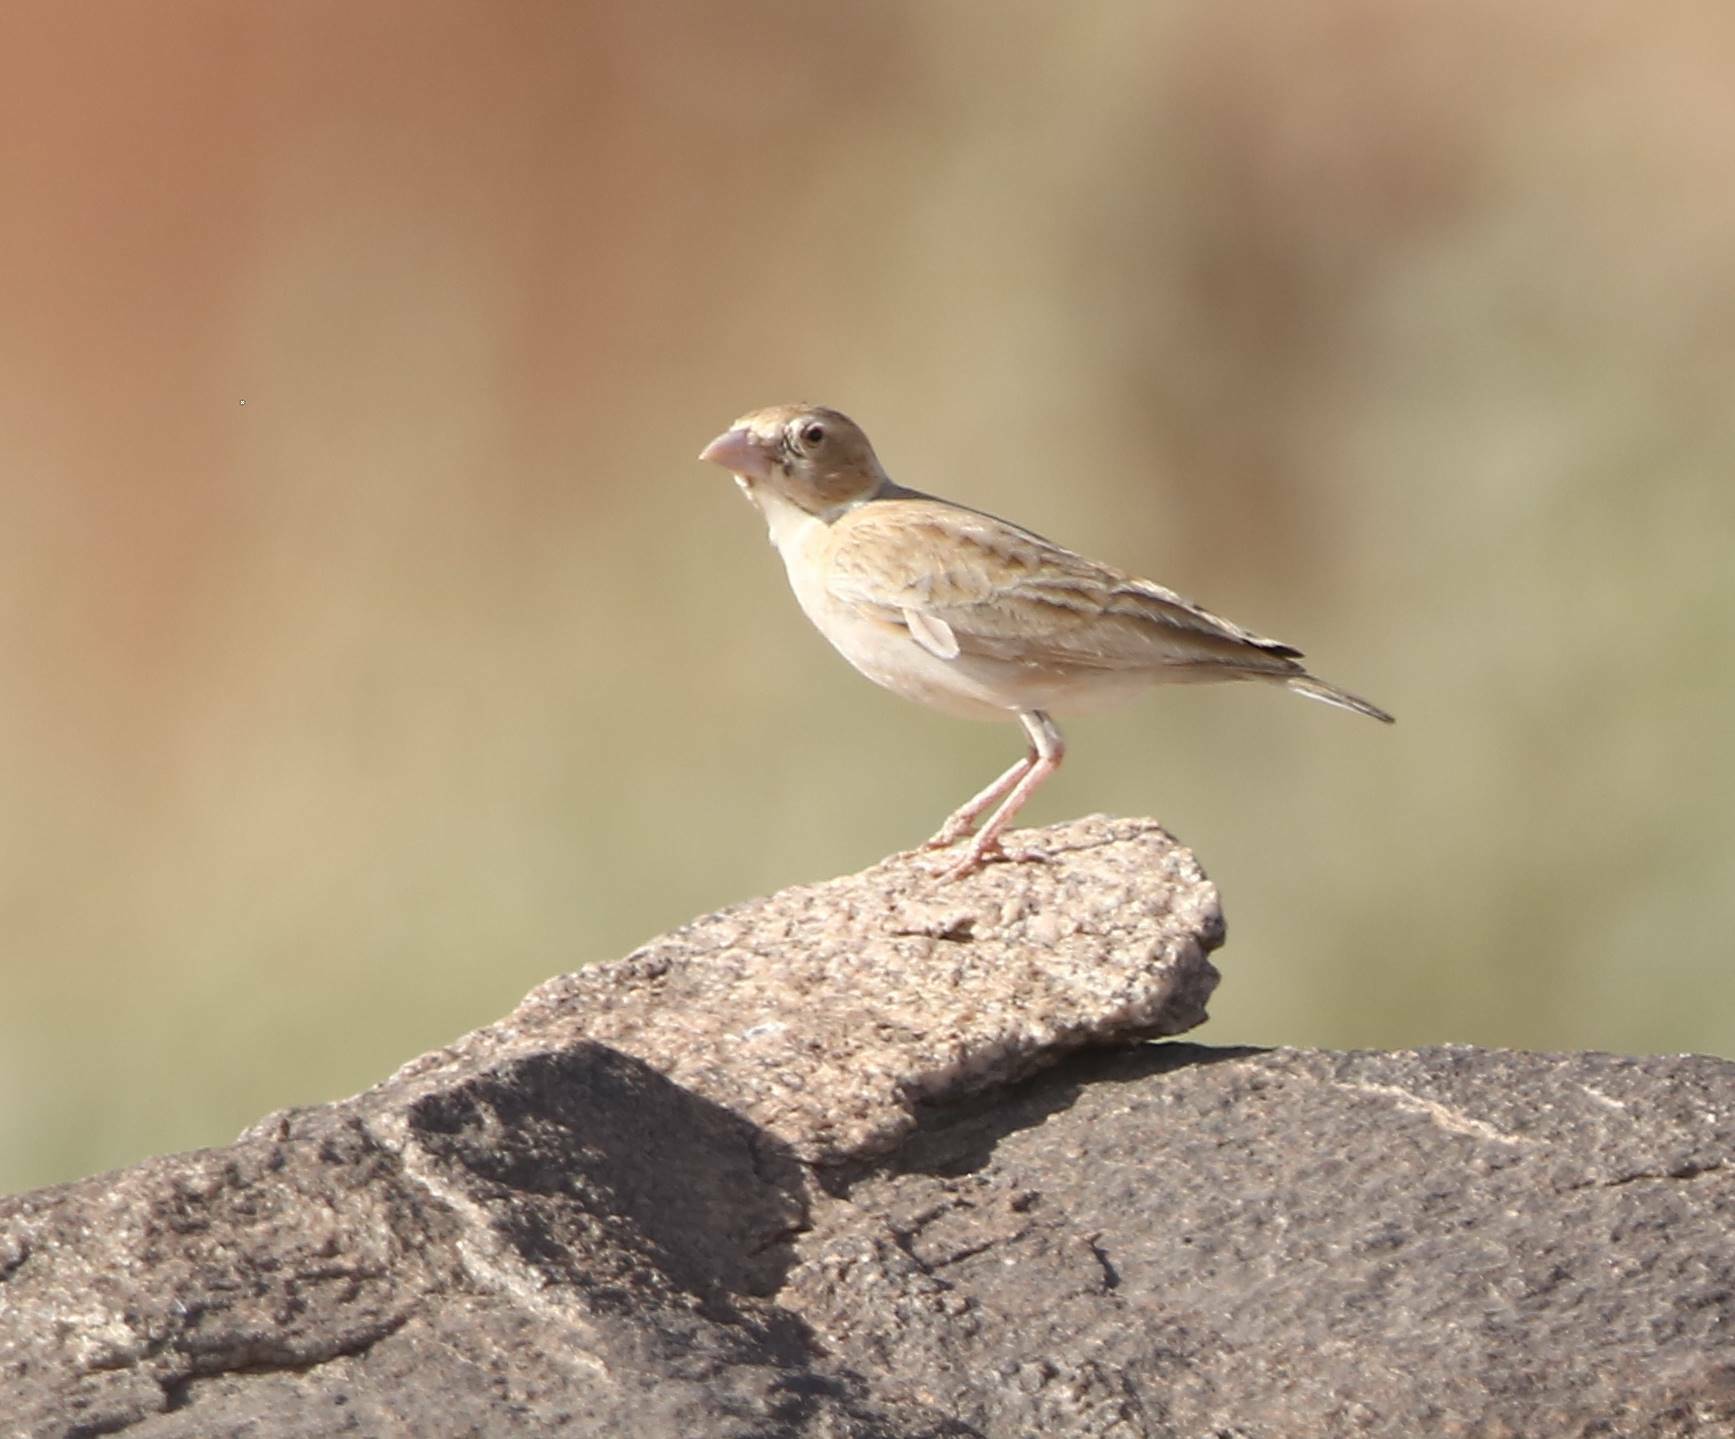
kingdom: Animalia
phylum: Chordata
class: Aves
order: Passeriformes
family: Alaudidae
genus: Eremopterix
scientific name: Eremopterix nigriceps
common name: Black-crowned sparrow-lark
